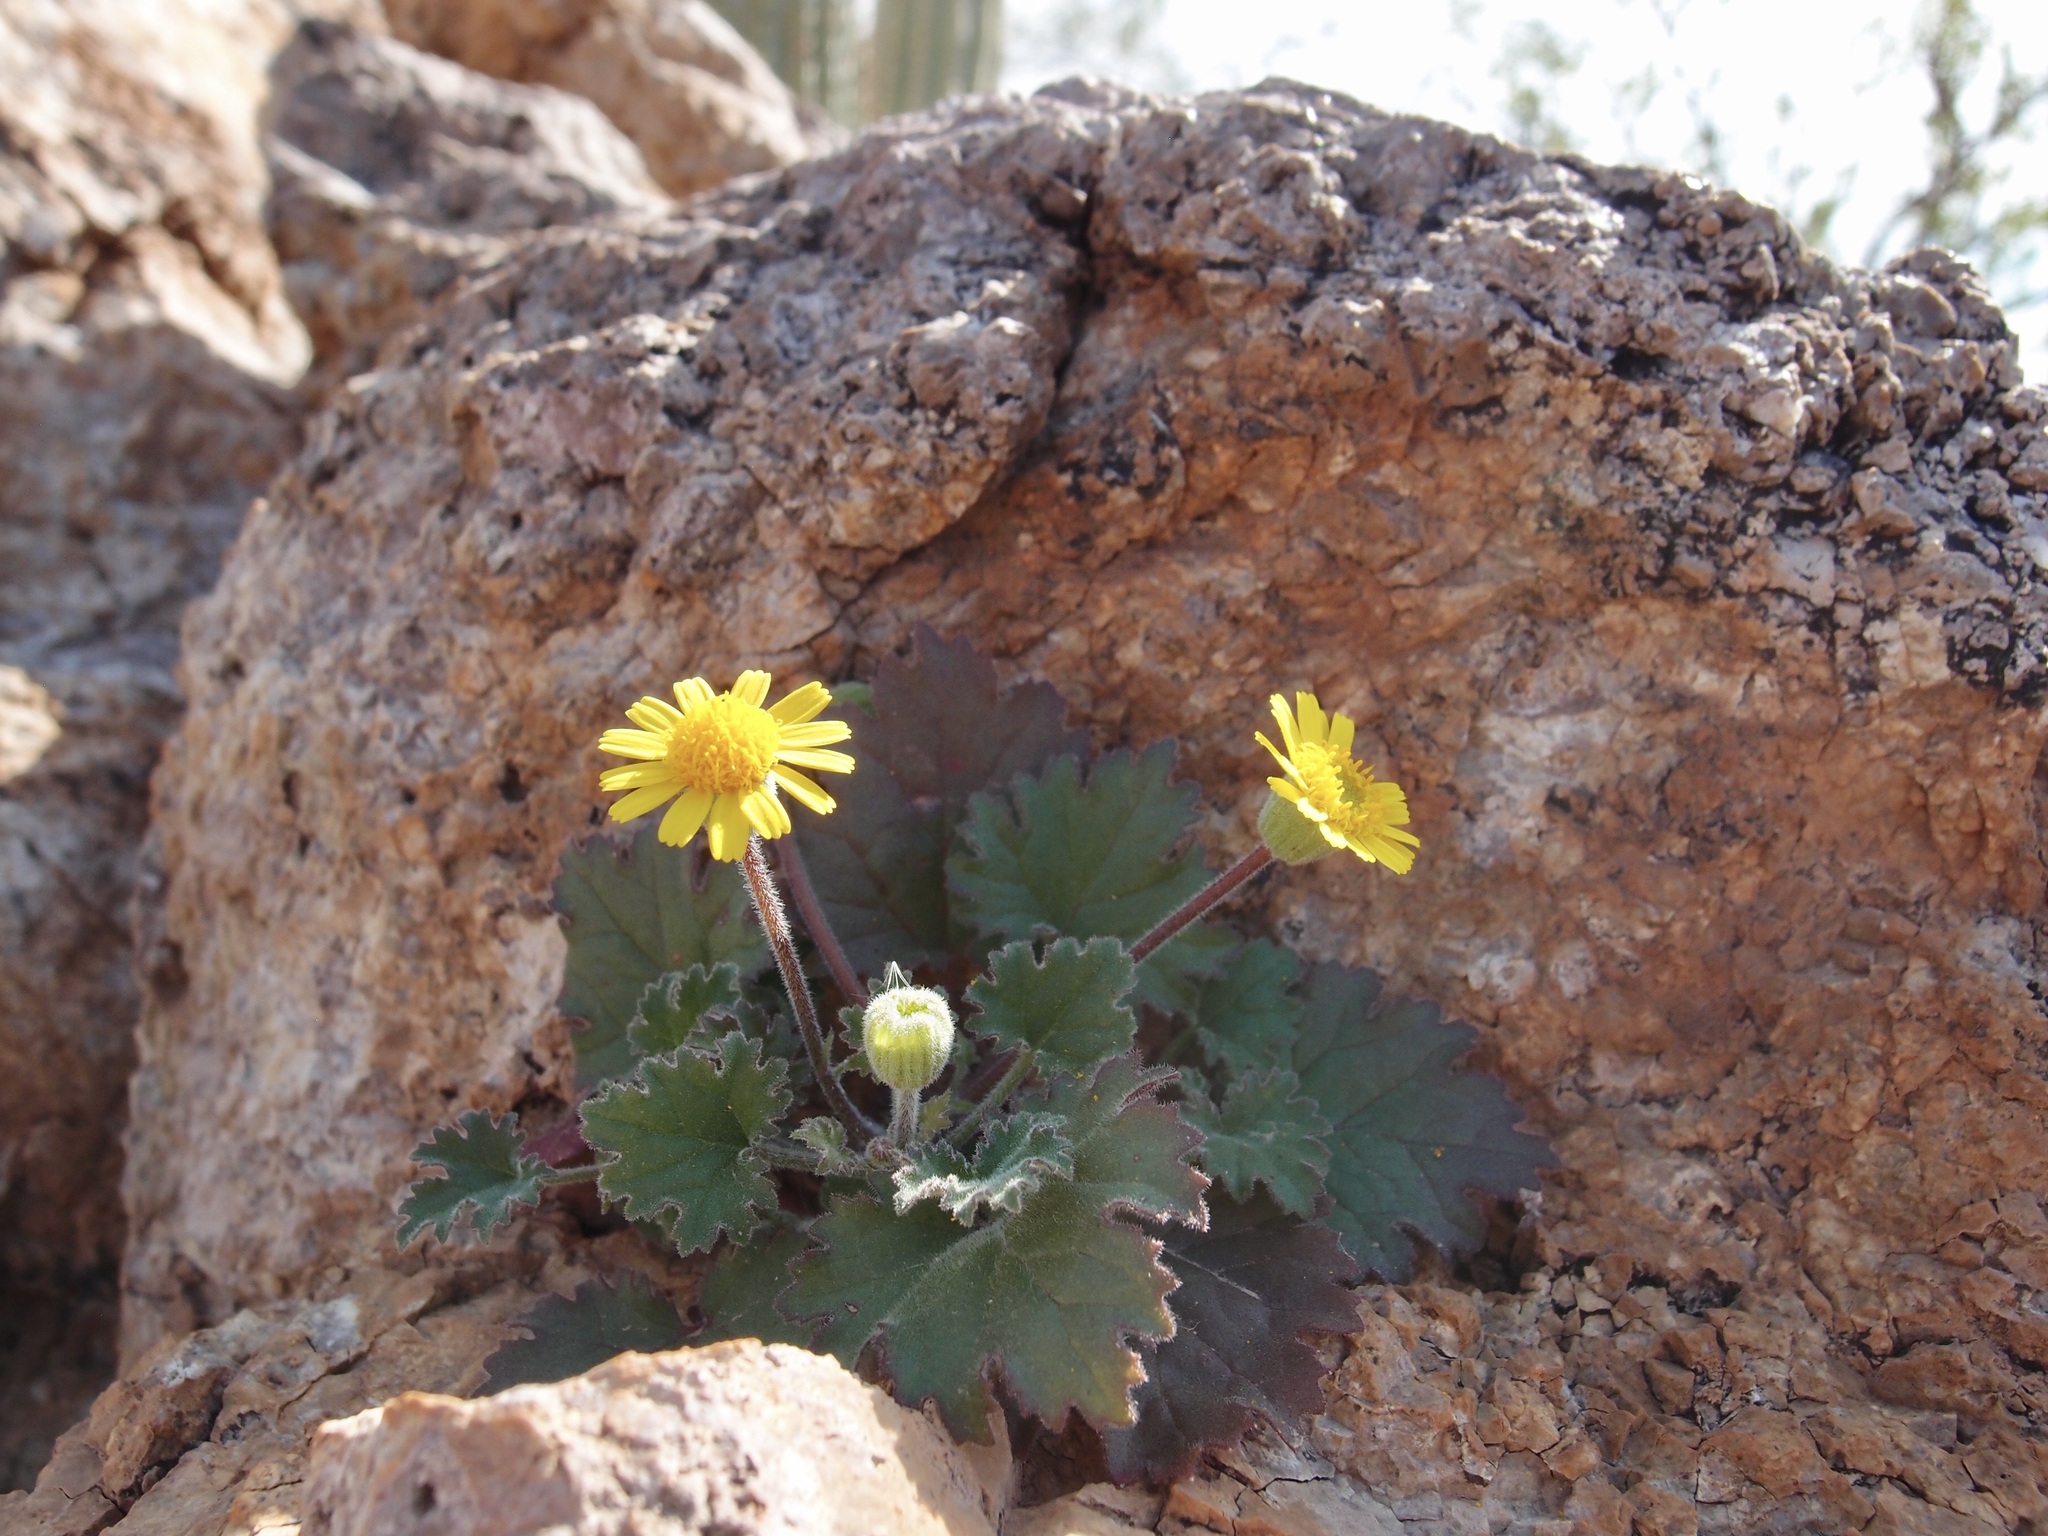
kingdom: Plantae
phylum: Tracheophyta
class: Magnoliopsida
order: Asterales
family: Asteraceae
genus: Laphamia
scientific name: Laphamia sanchezii
